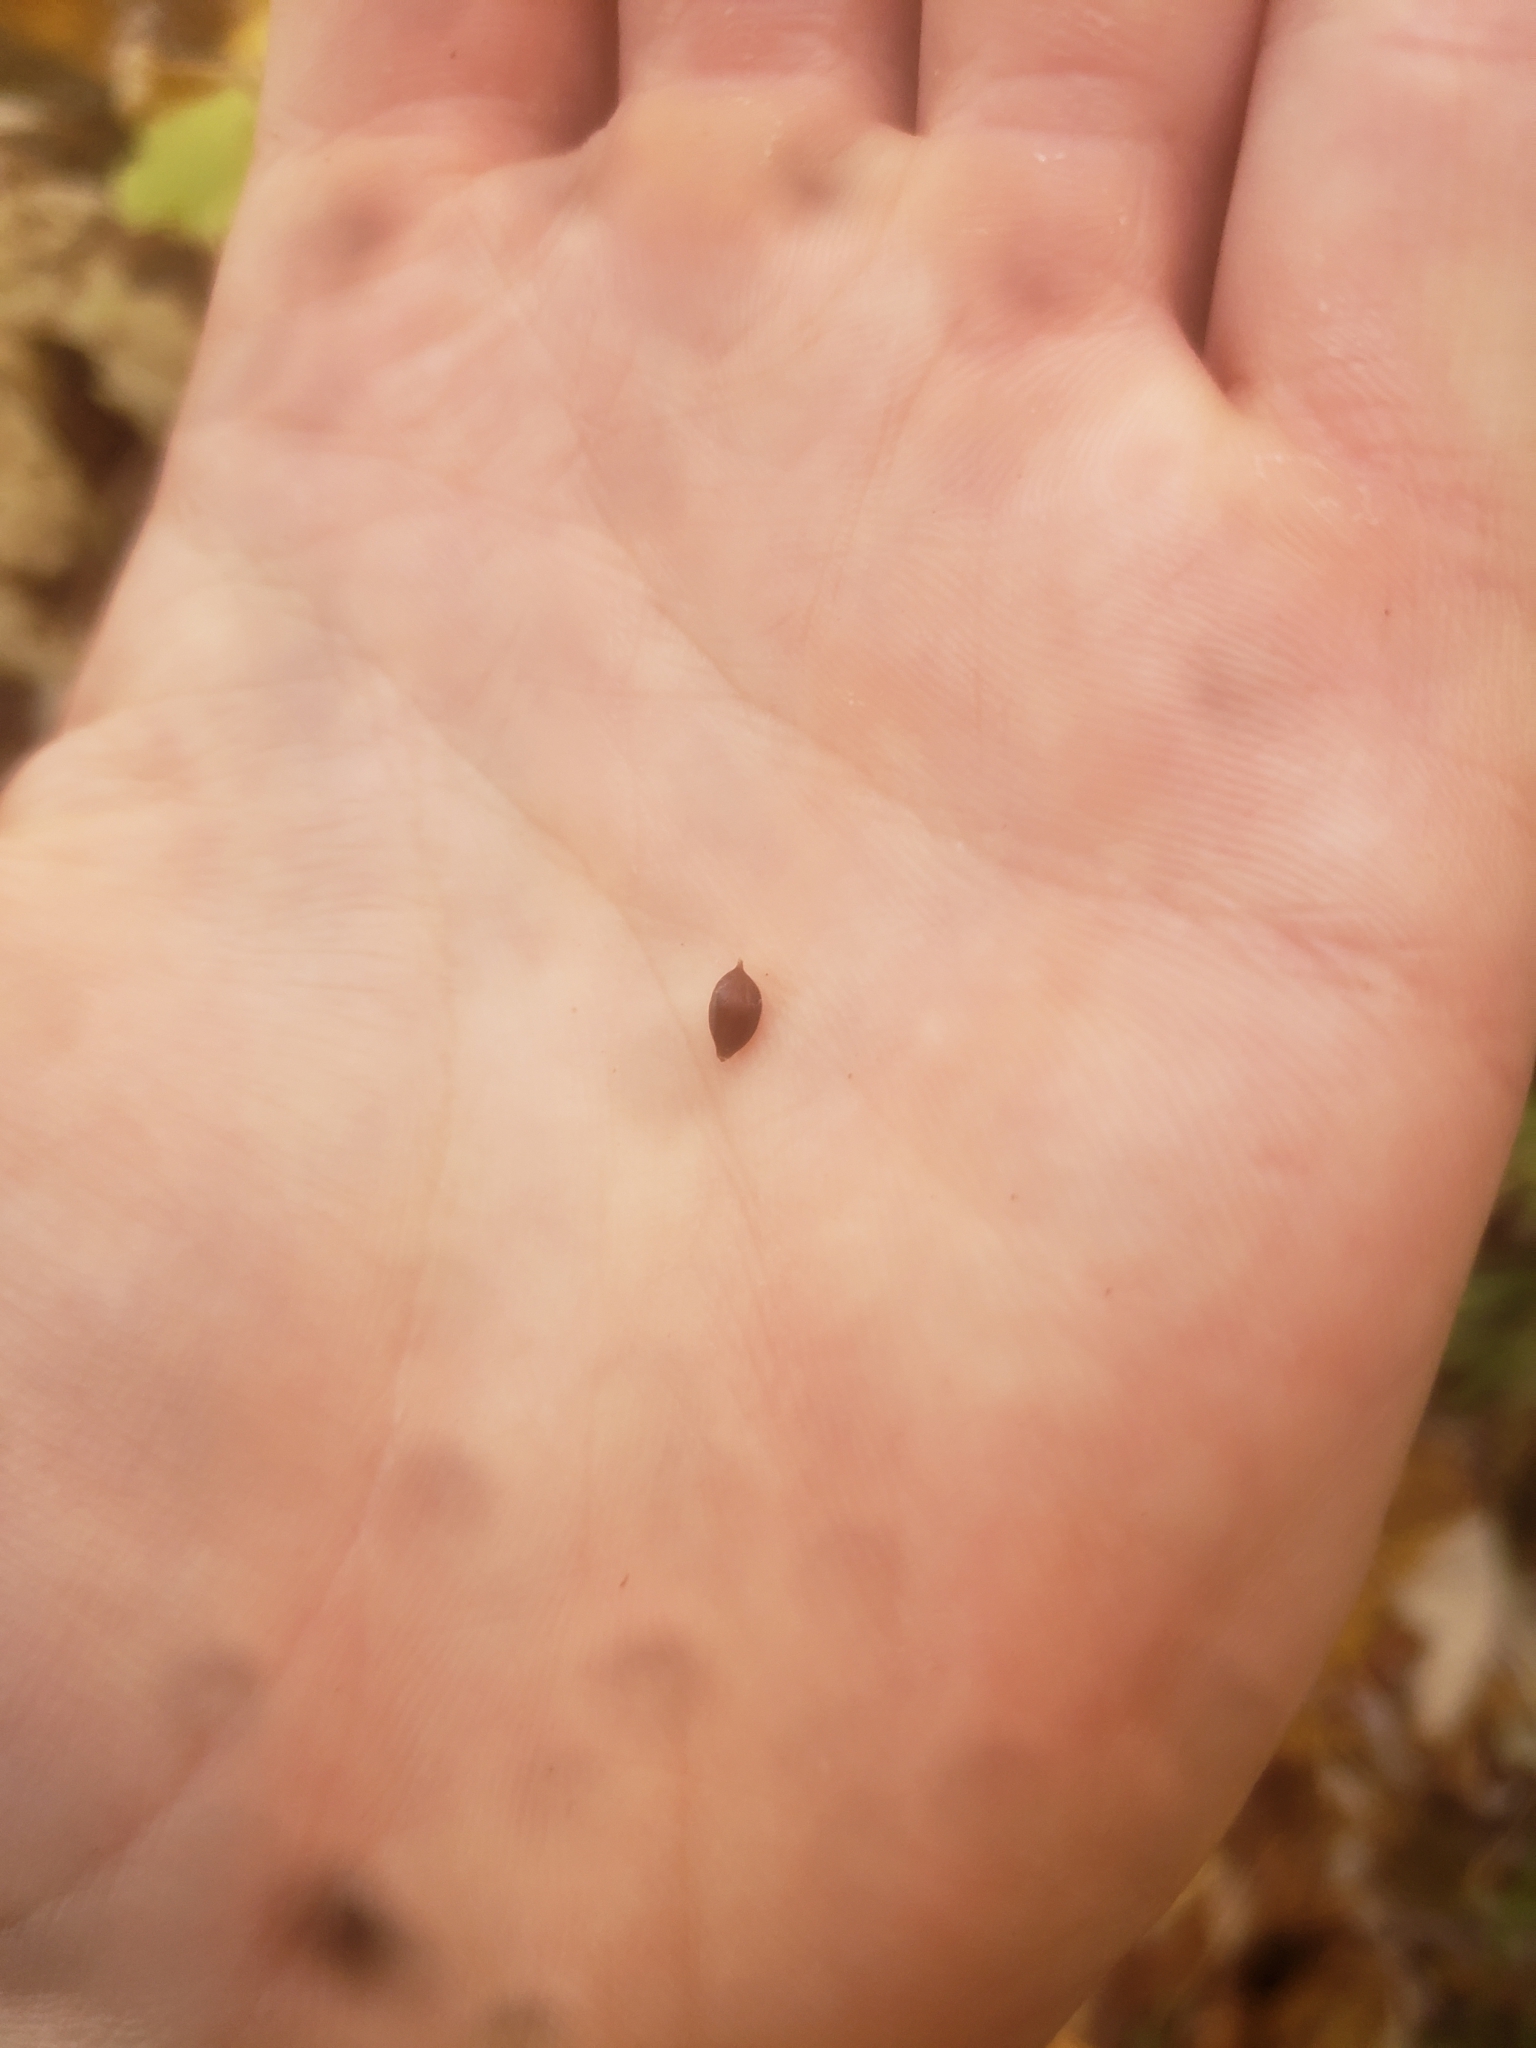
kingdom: Plantae
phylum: Tracheophyta
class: Liliopsida
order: Poales
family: Cyperaceae
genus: Carex
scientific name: Carex intumescens
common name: Greater bladder sedge
